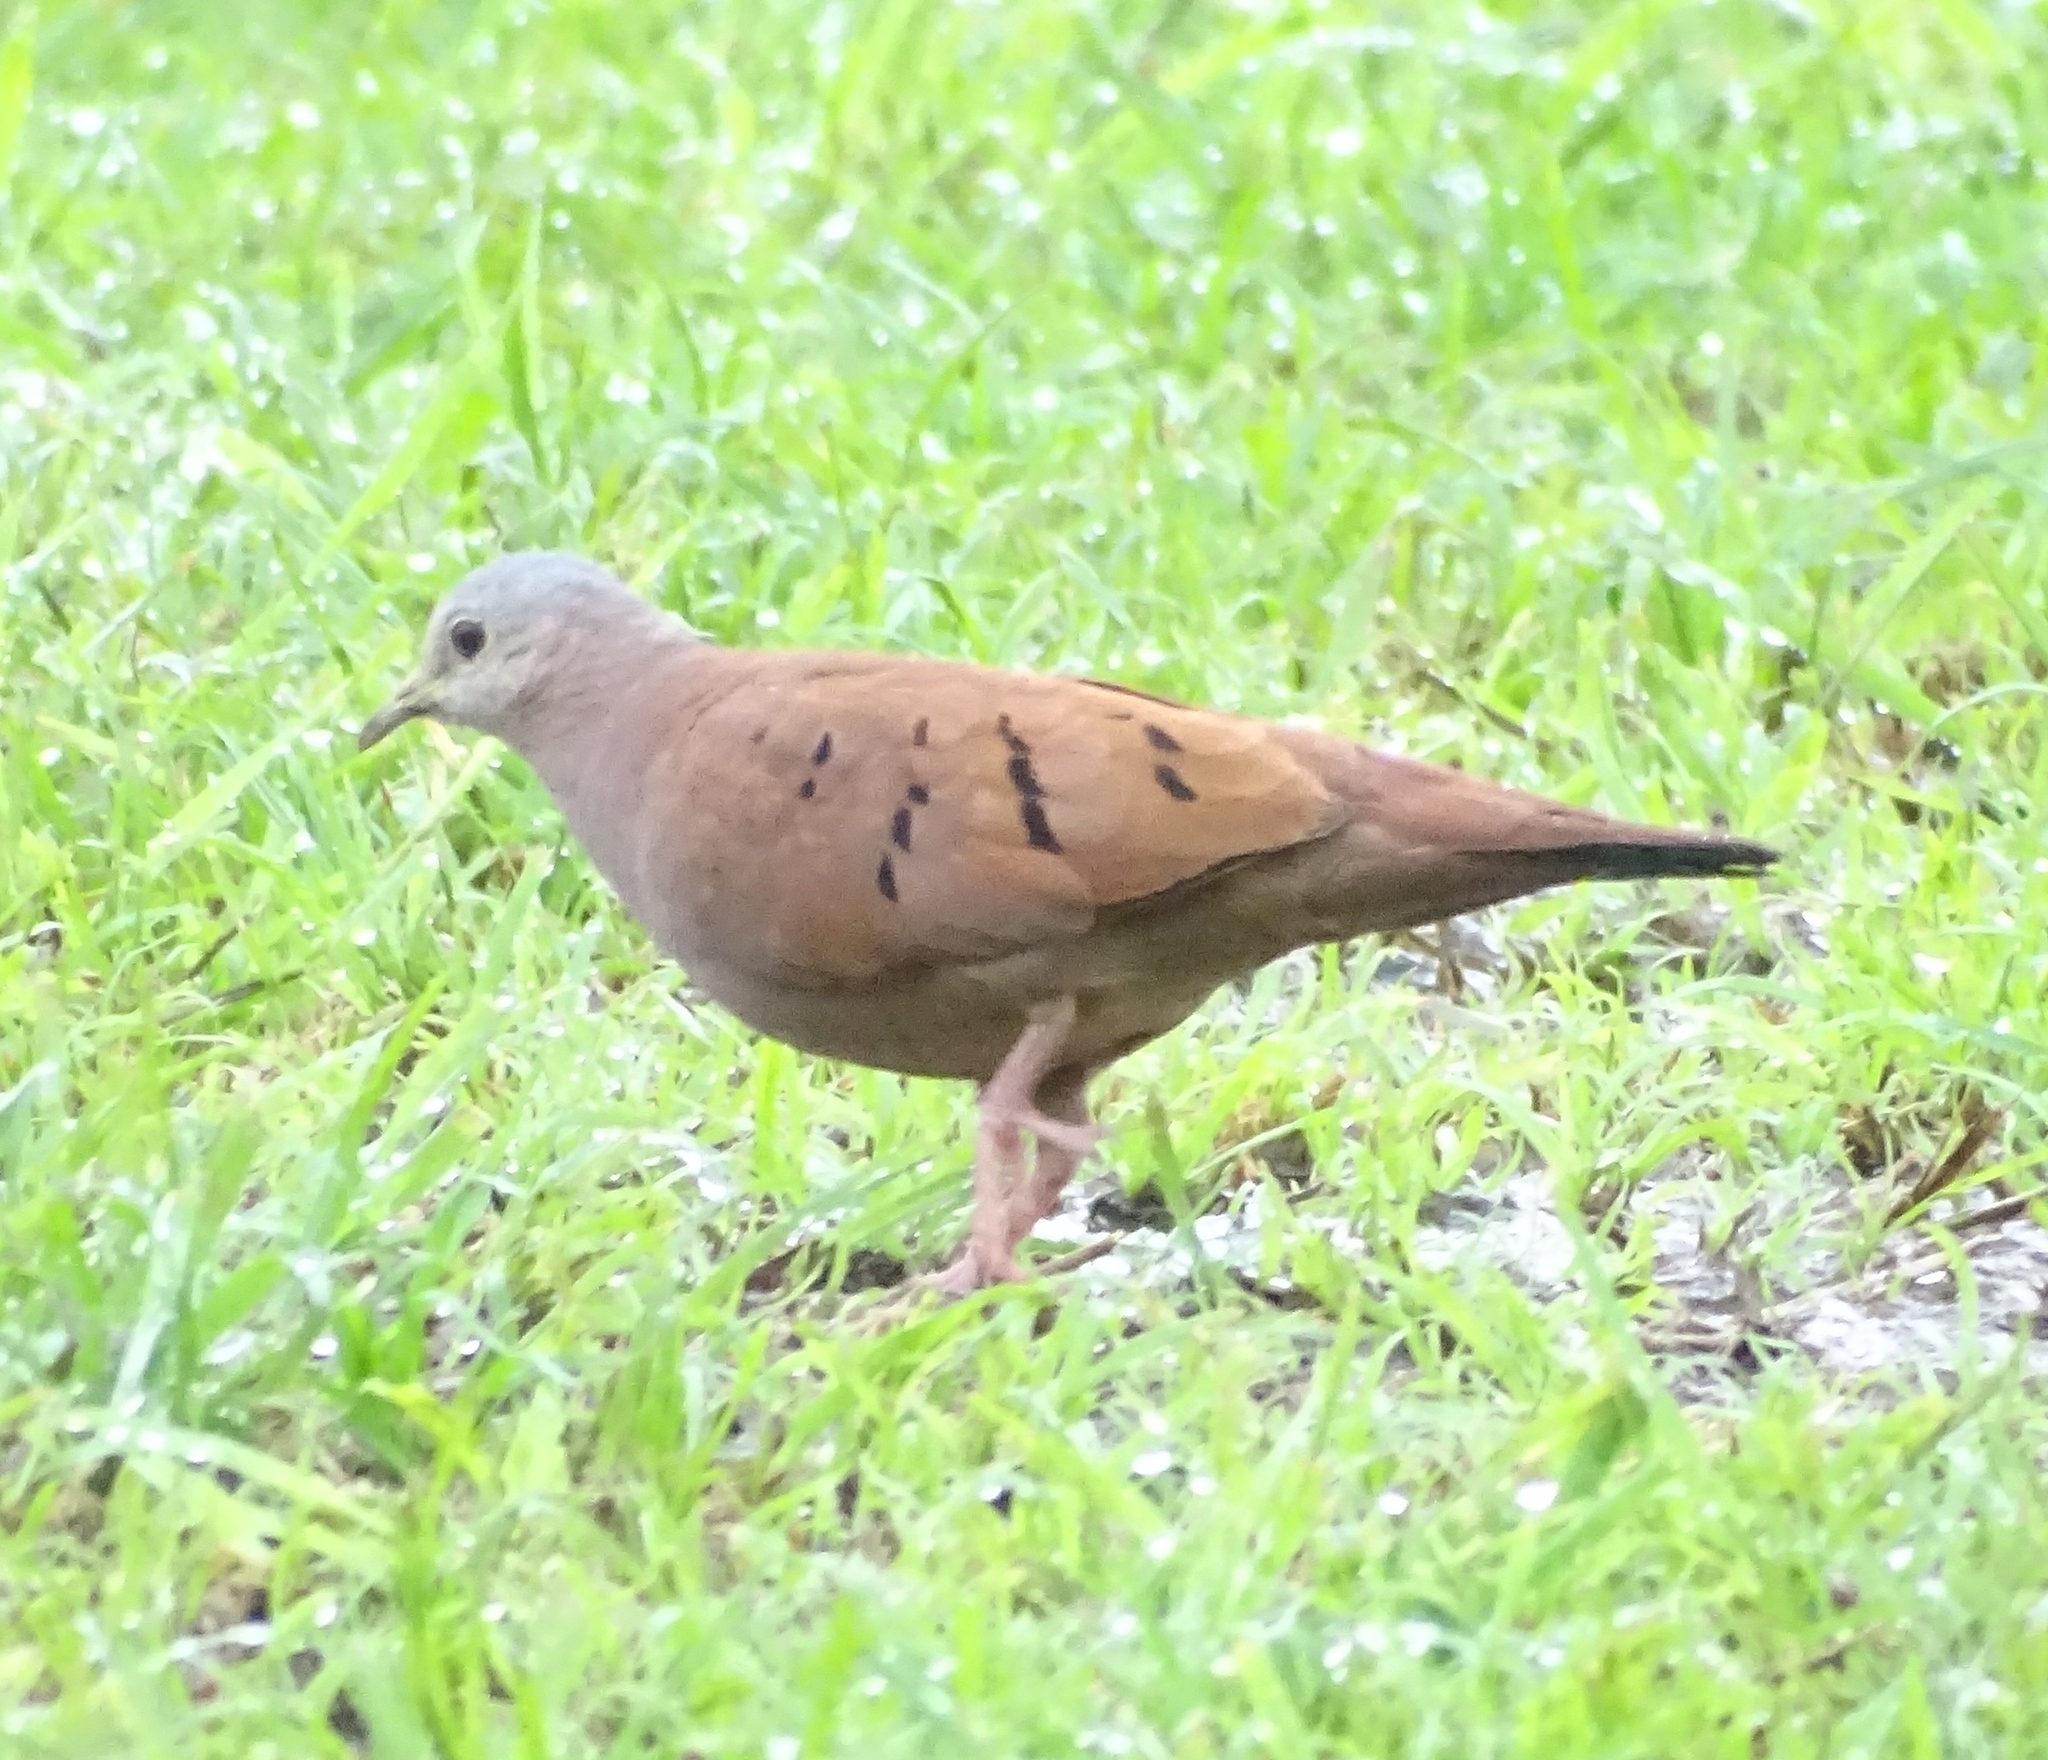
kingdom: Animalia
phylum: Chordata
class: Aves
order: Columbiformes
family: Columbidae
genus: Columbina
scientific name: Columbina talpacoti
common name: Ruddy ground dove
